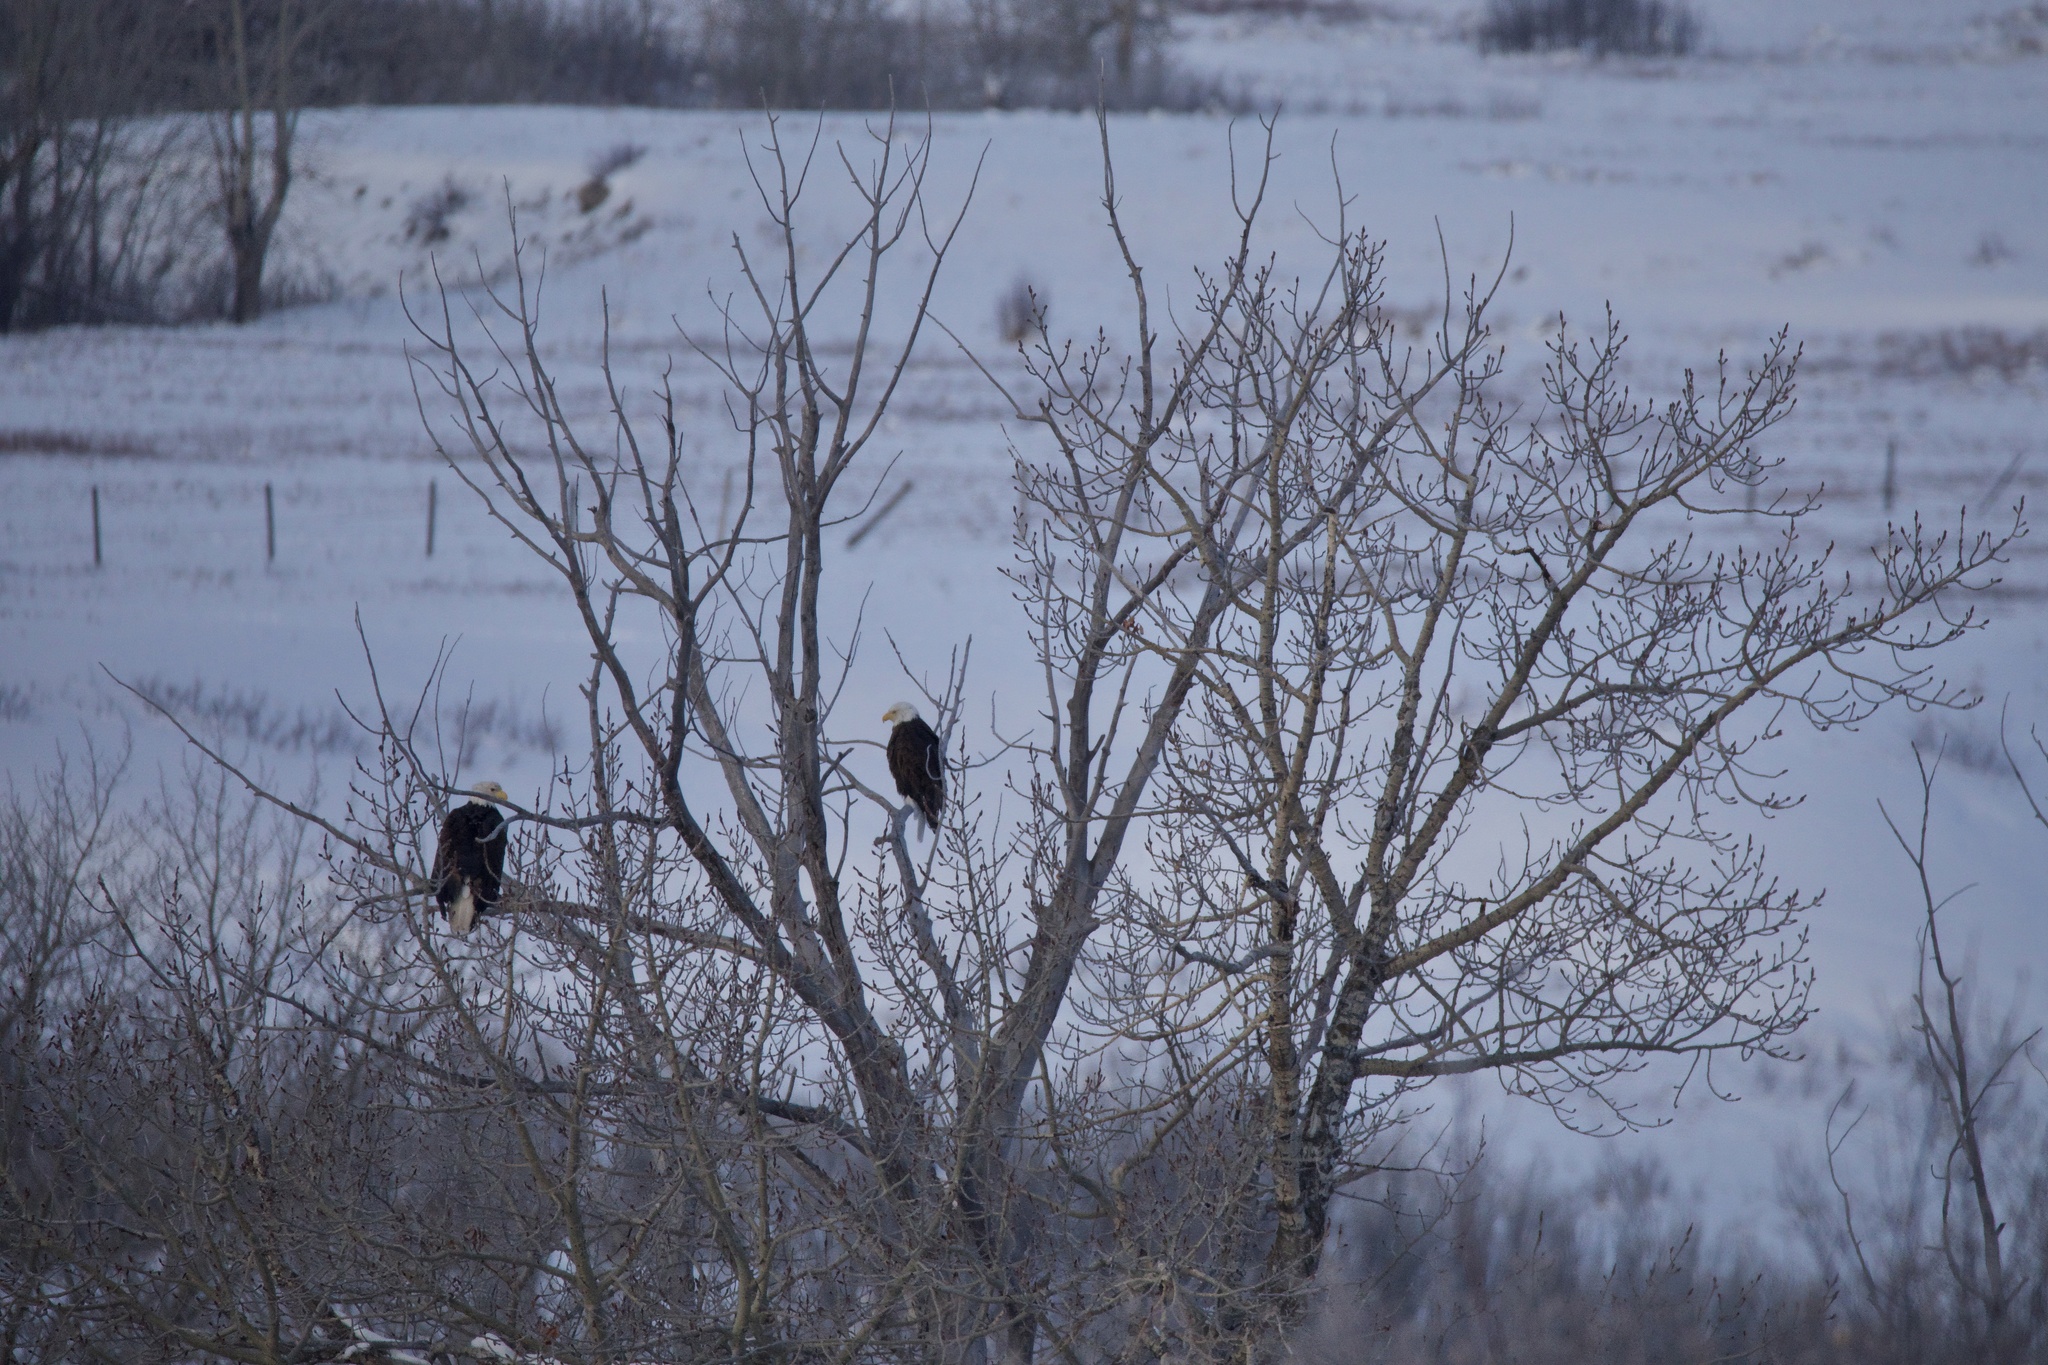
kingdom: Animalia
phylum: Chordata
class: Aves
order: Accipitriformes
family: Accipitridae
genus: Haliaeetus
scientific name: Haliaeetus leucocephalus
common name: Bald eagle
